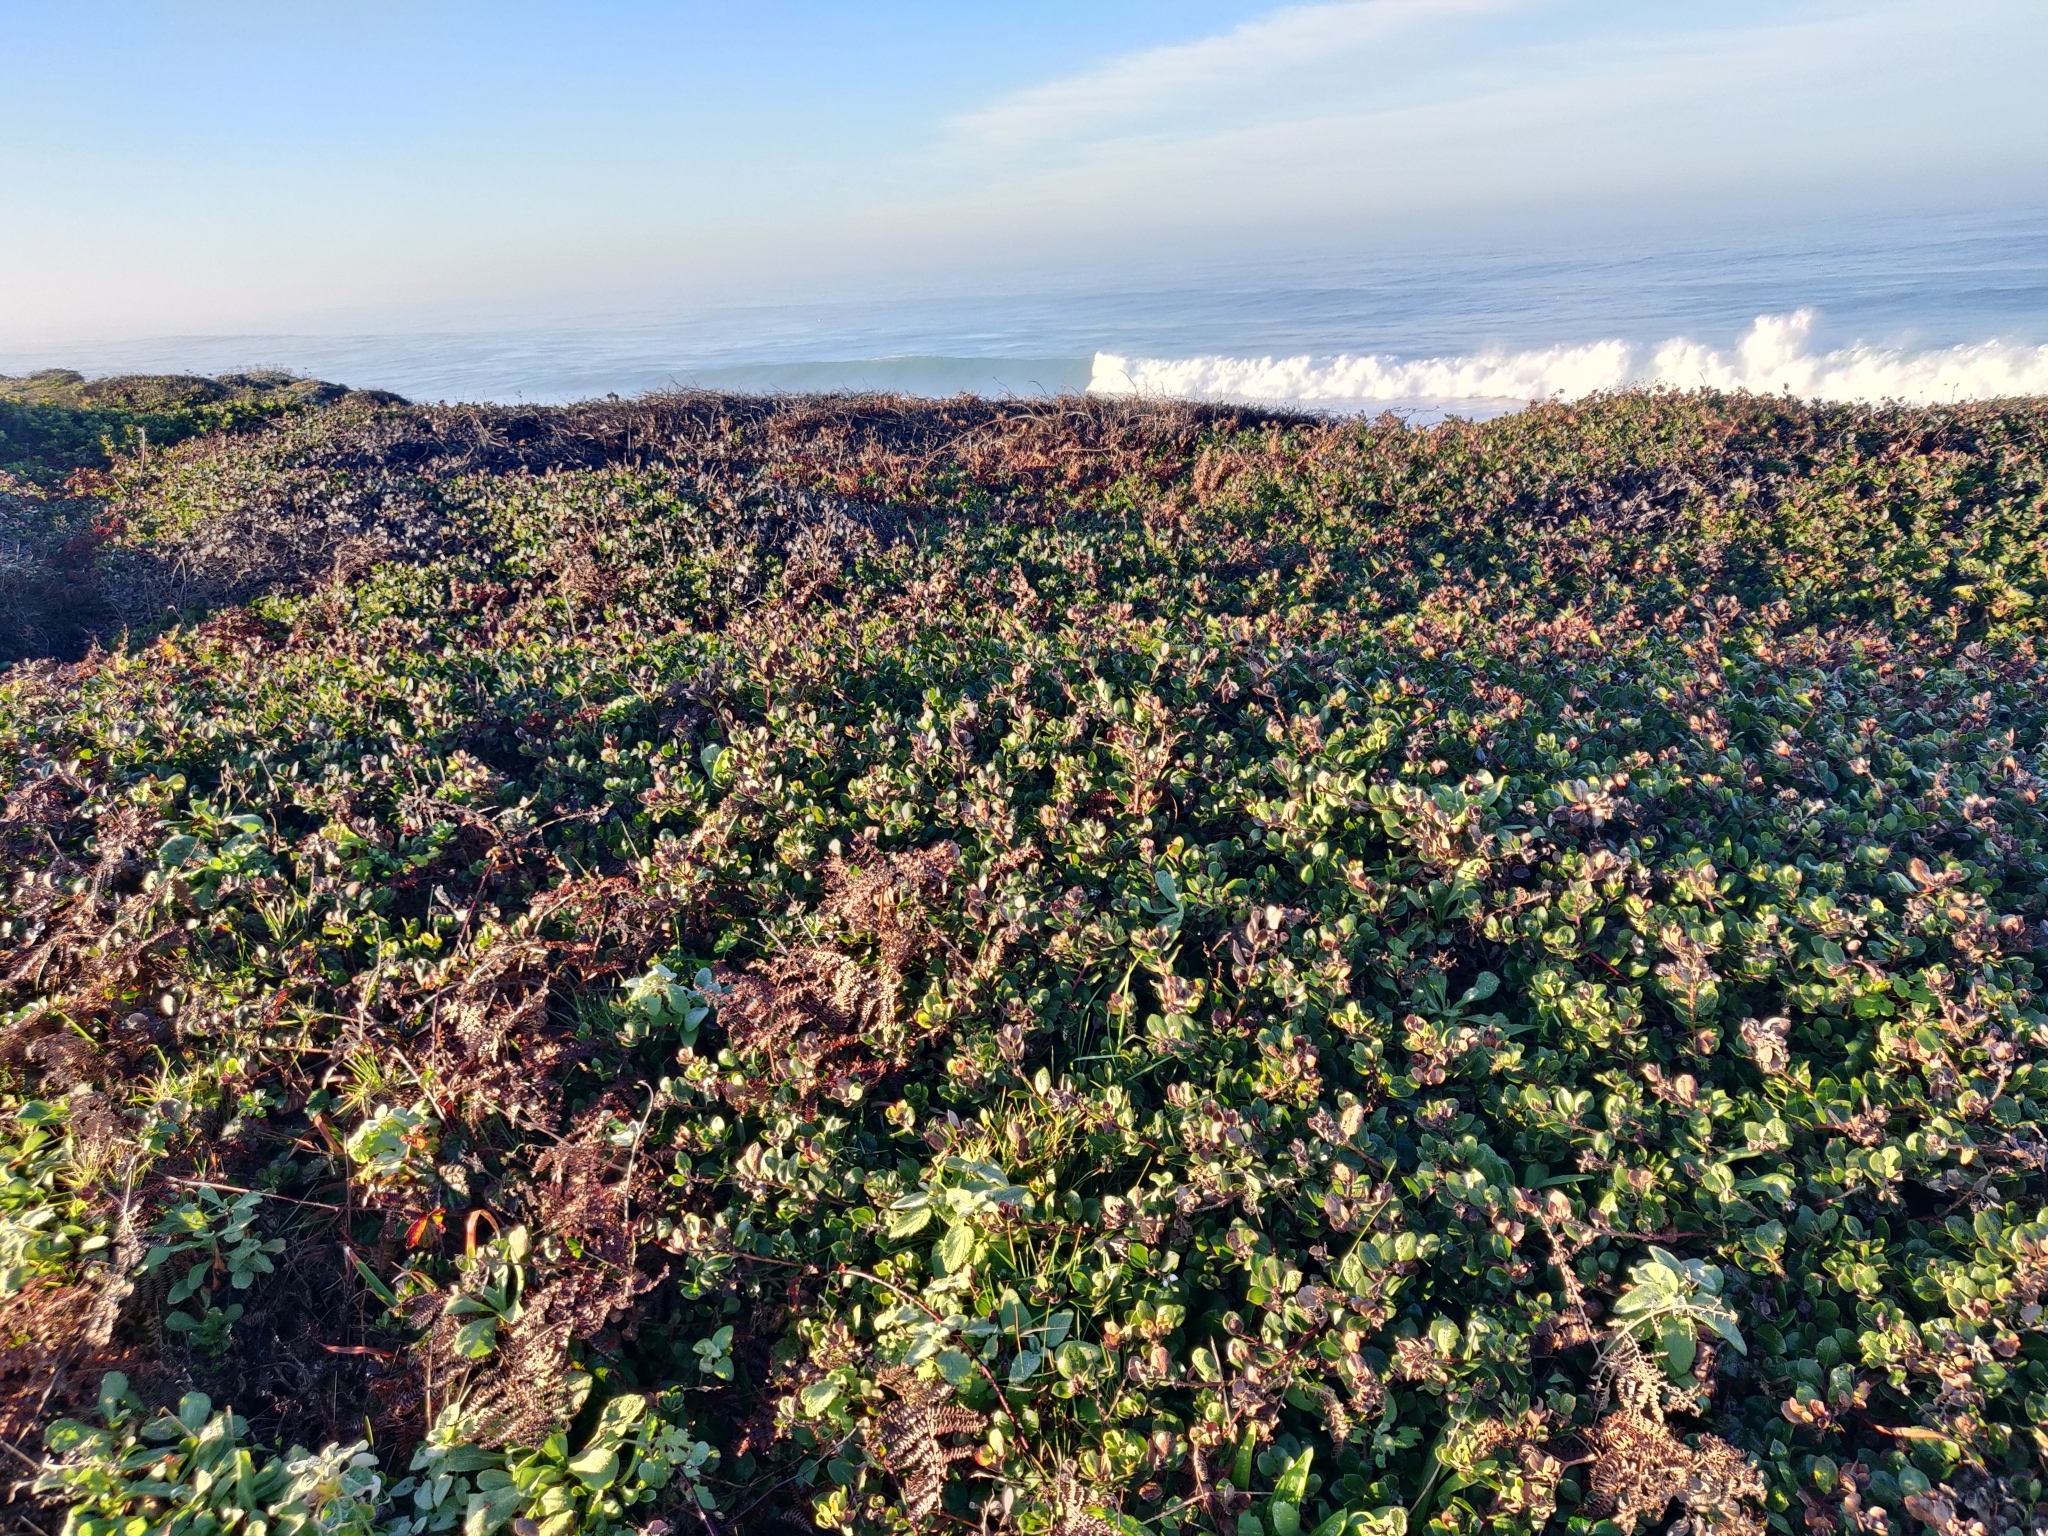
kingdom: Plantae
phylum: Tracheophyta
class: Magnoliopsida
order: Ericales
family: Ericaceae
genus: Arctostaphylos
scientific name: Arctostaphylos media
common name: Hybrid manzanita
